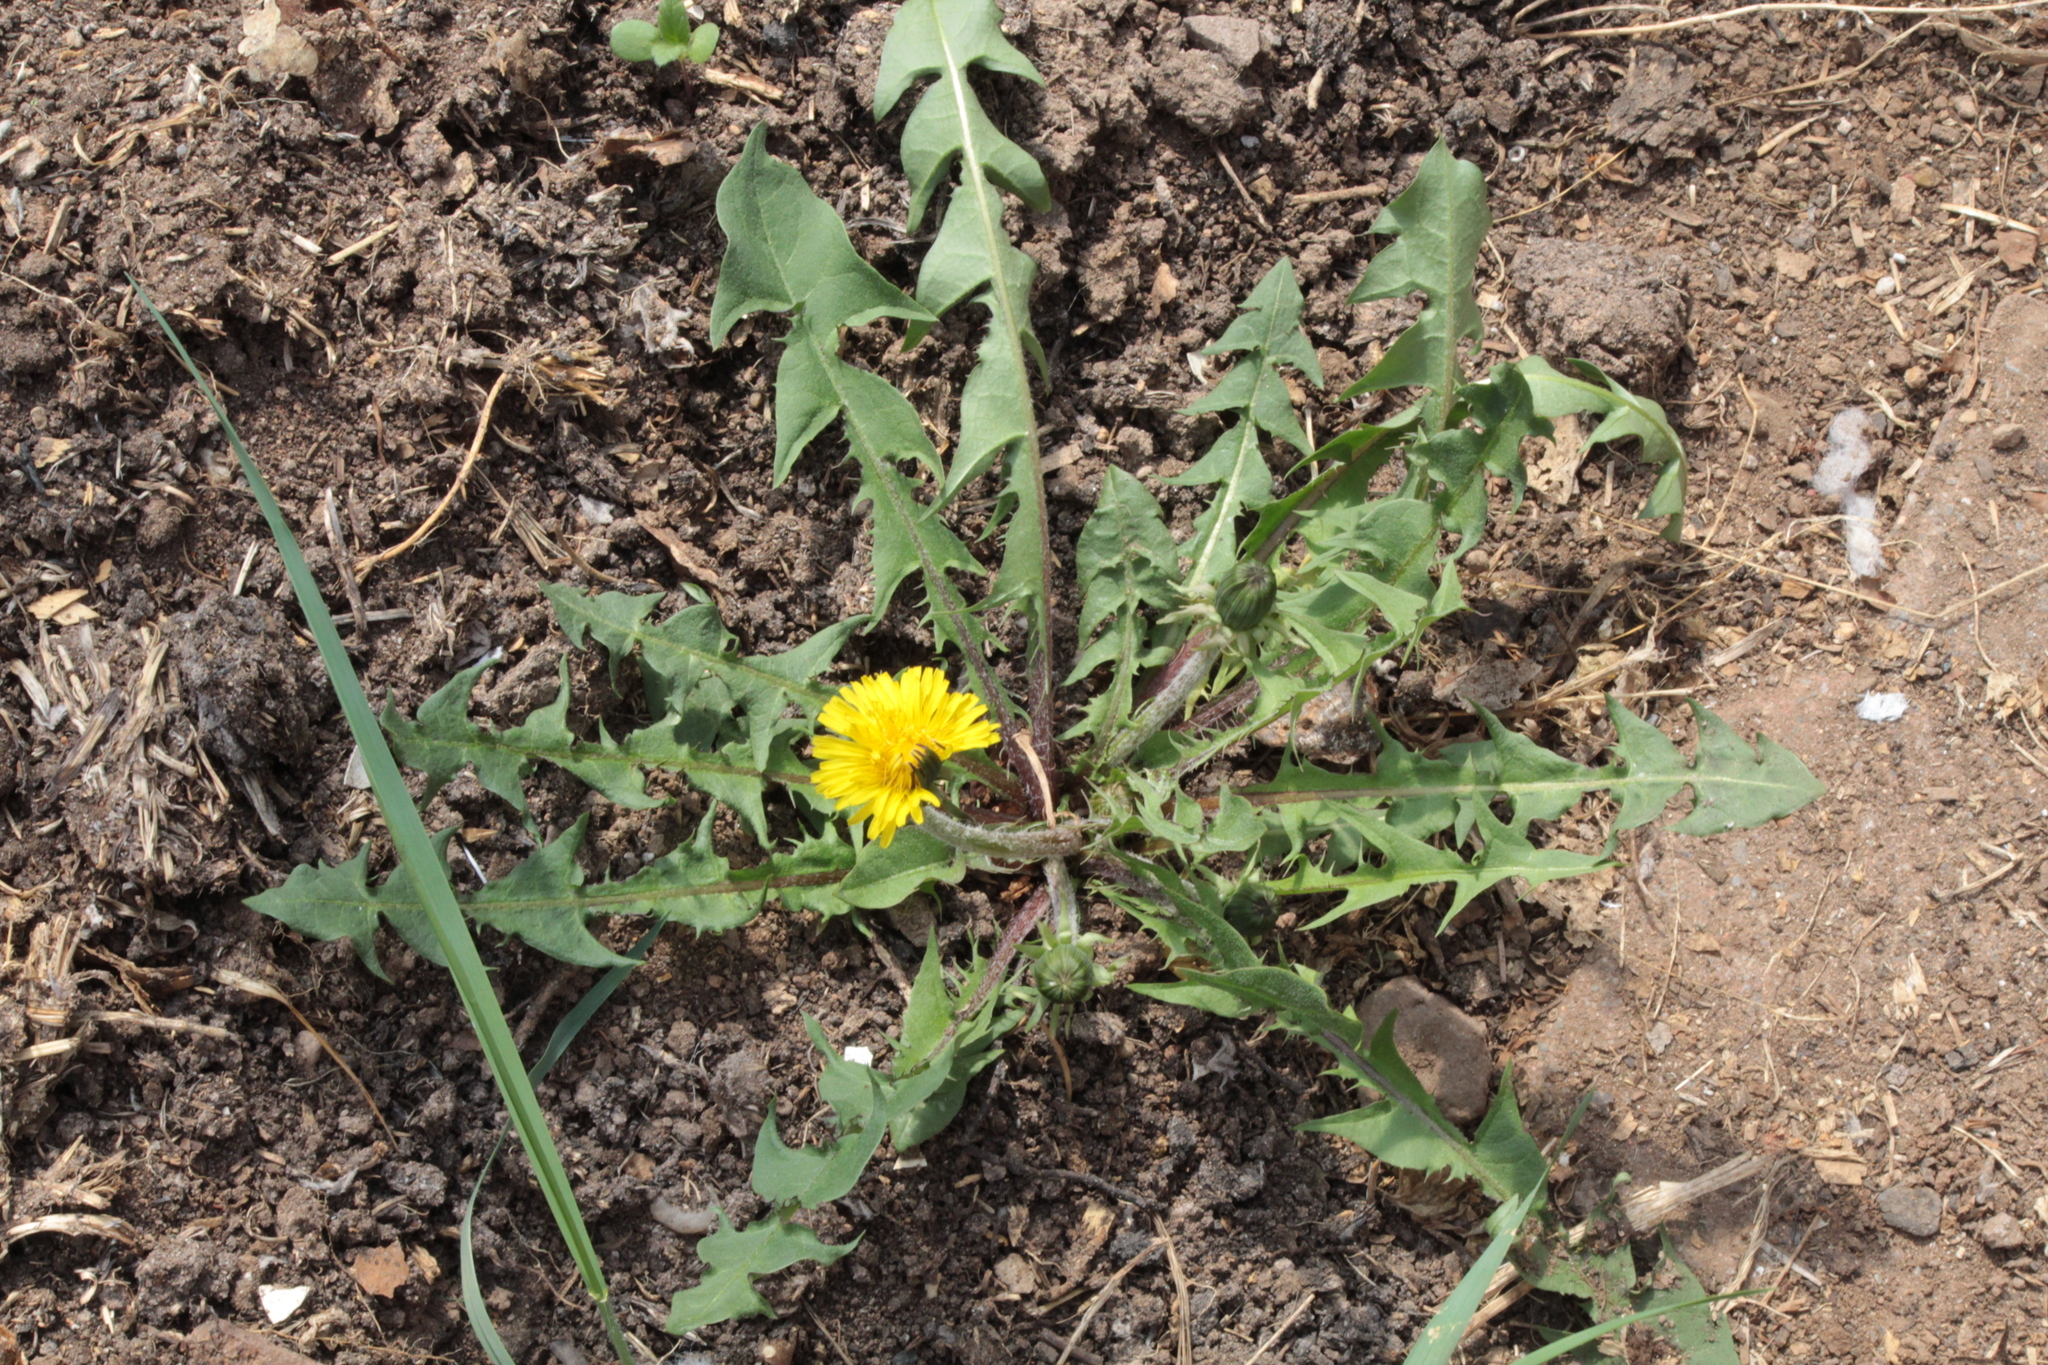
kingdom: Plantae
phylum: Tracheophyta
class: Magnoliopsida
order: Asterales
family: Asteraceae
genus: Taraxacum
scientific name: Taraxacum officinale
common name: Common dandelion
